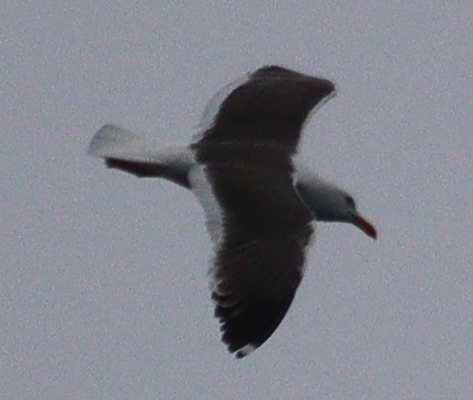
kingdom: Animalia
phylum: Chordata
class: Aves
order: Charadriiformes
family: Laridae
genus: Larus
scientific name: Larus marinus
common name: Great black-backed gull
